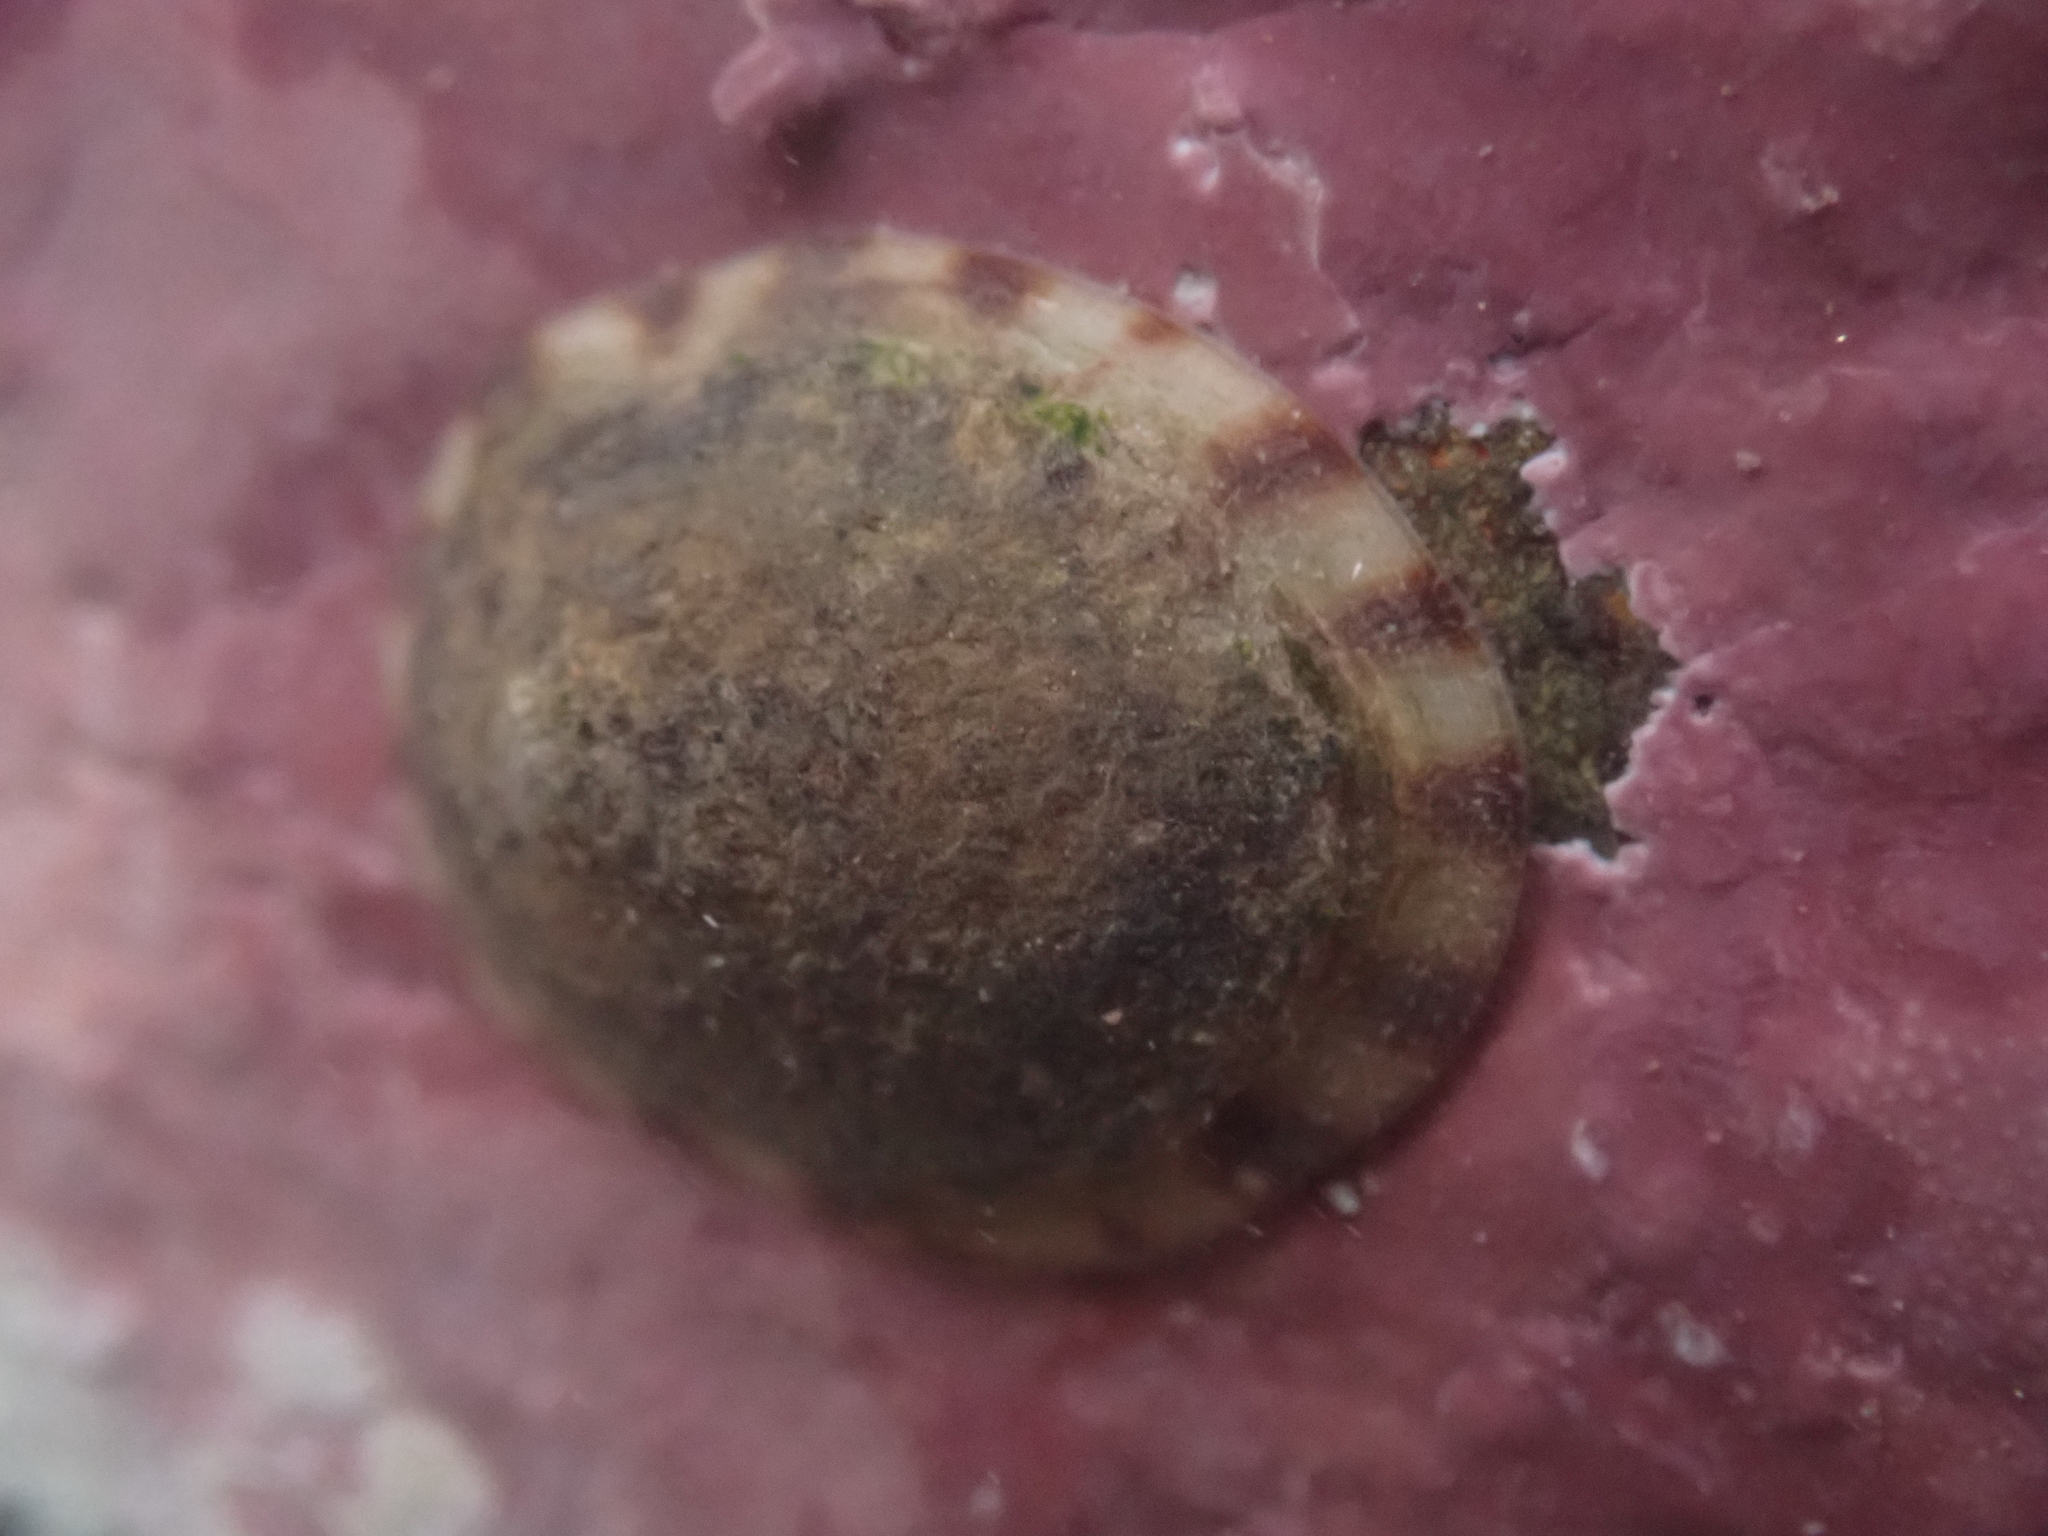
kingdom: Animalia
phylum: Mollusca
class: Gastropoda
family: Lottiidae
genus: Testudinalia
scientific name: Testudinalia testudinalis
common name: Common tortoiseshell limpet
